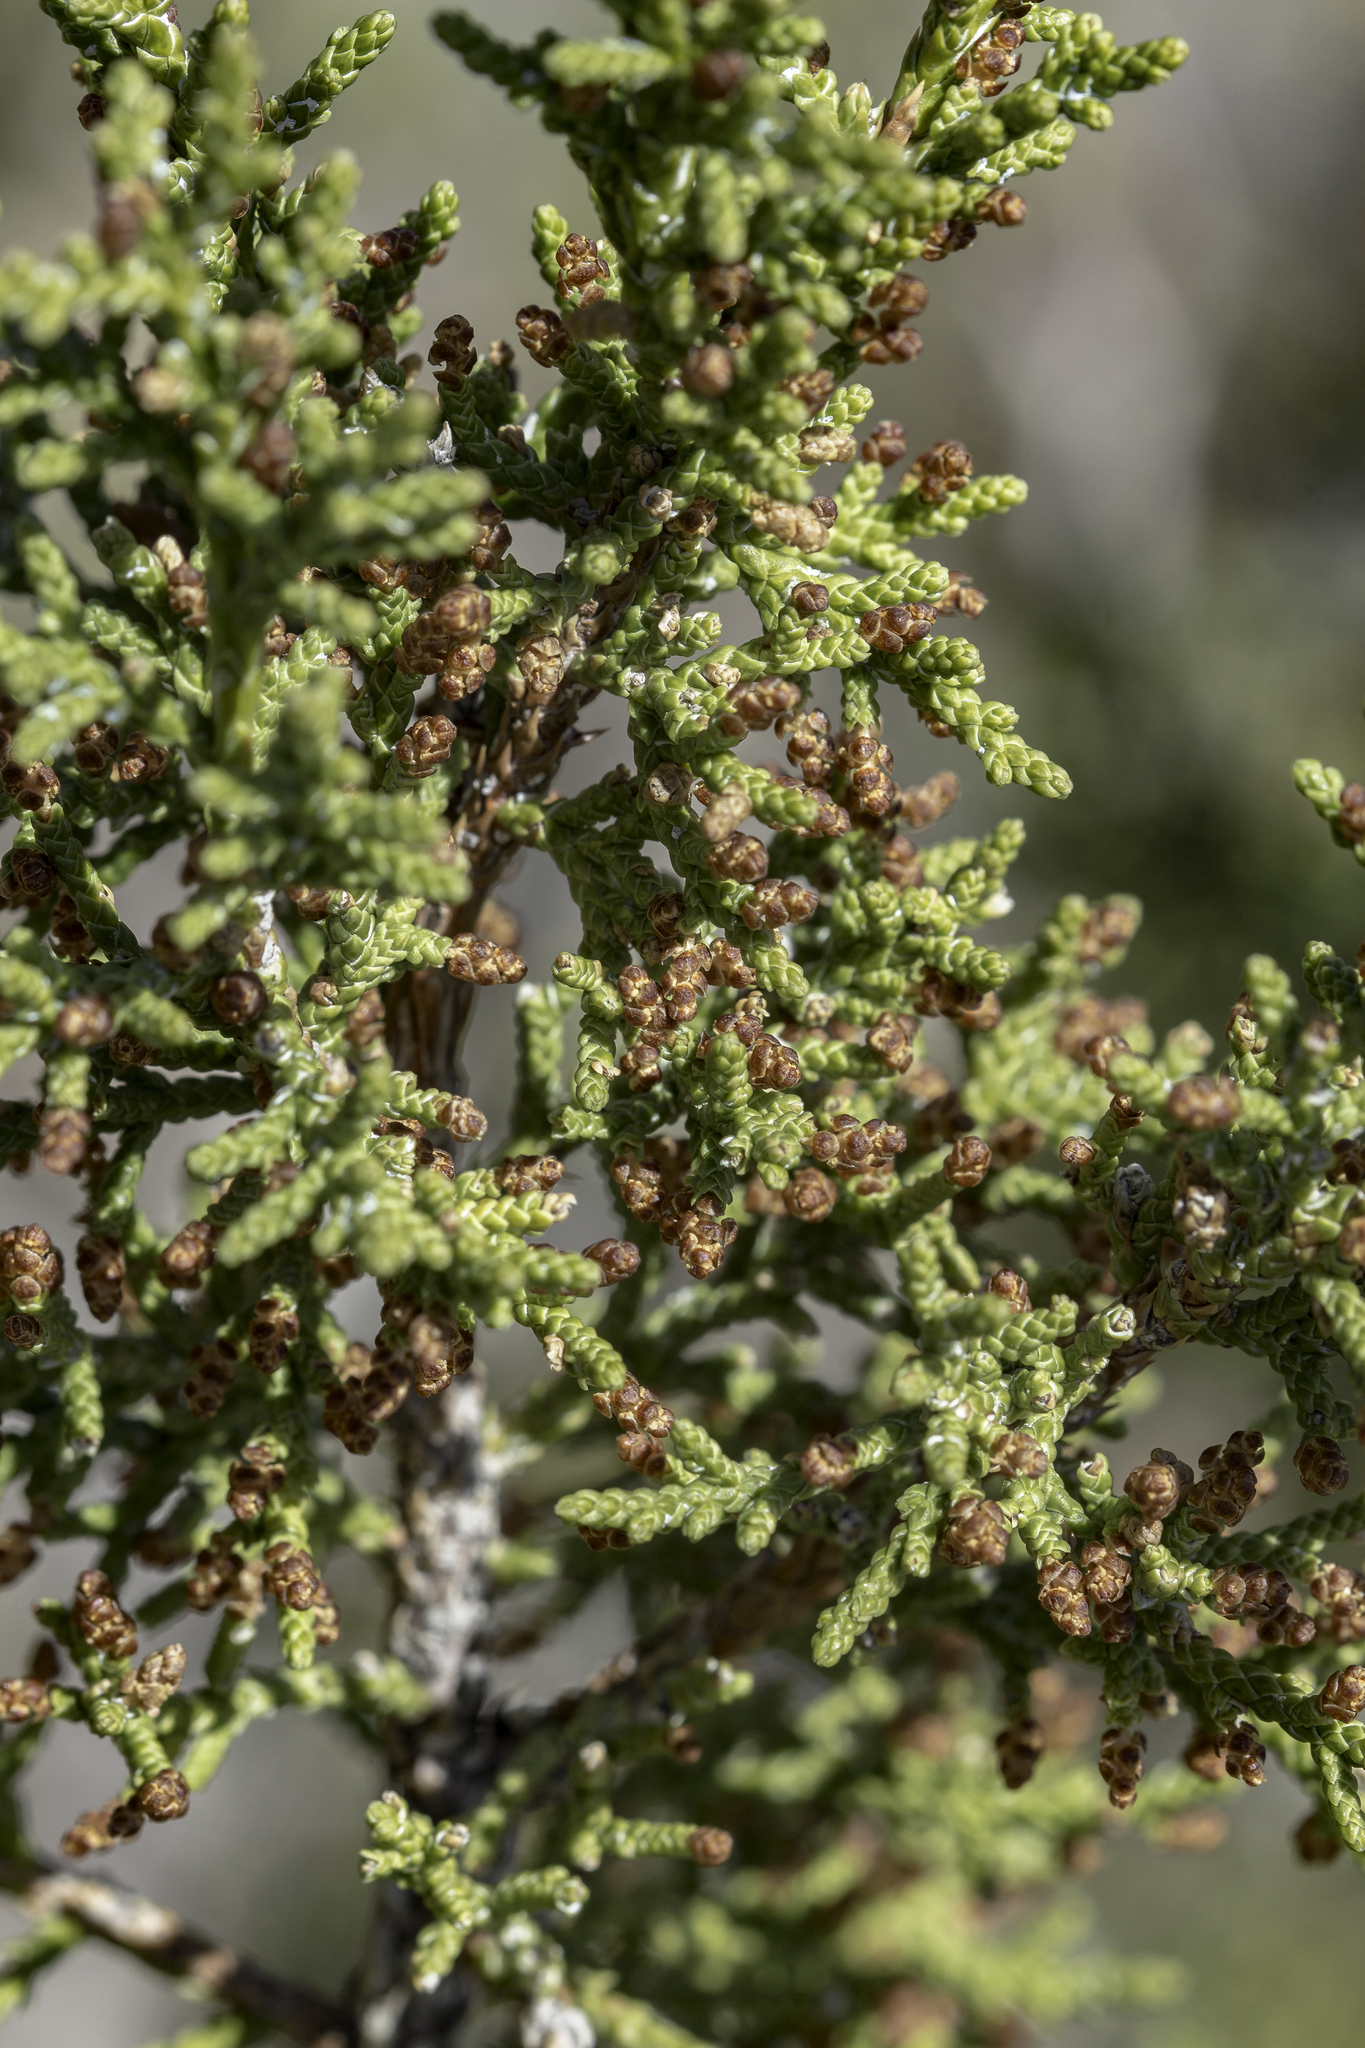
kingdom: Plantae
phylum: Tracheophyta
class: Pinopsida
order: Pinales
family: Cupressaceae
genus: Juniperus
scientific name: Juniperus monosperma
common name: One-seed juniper
